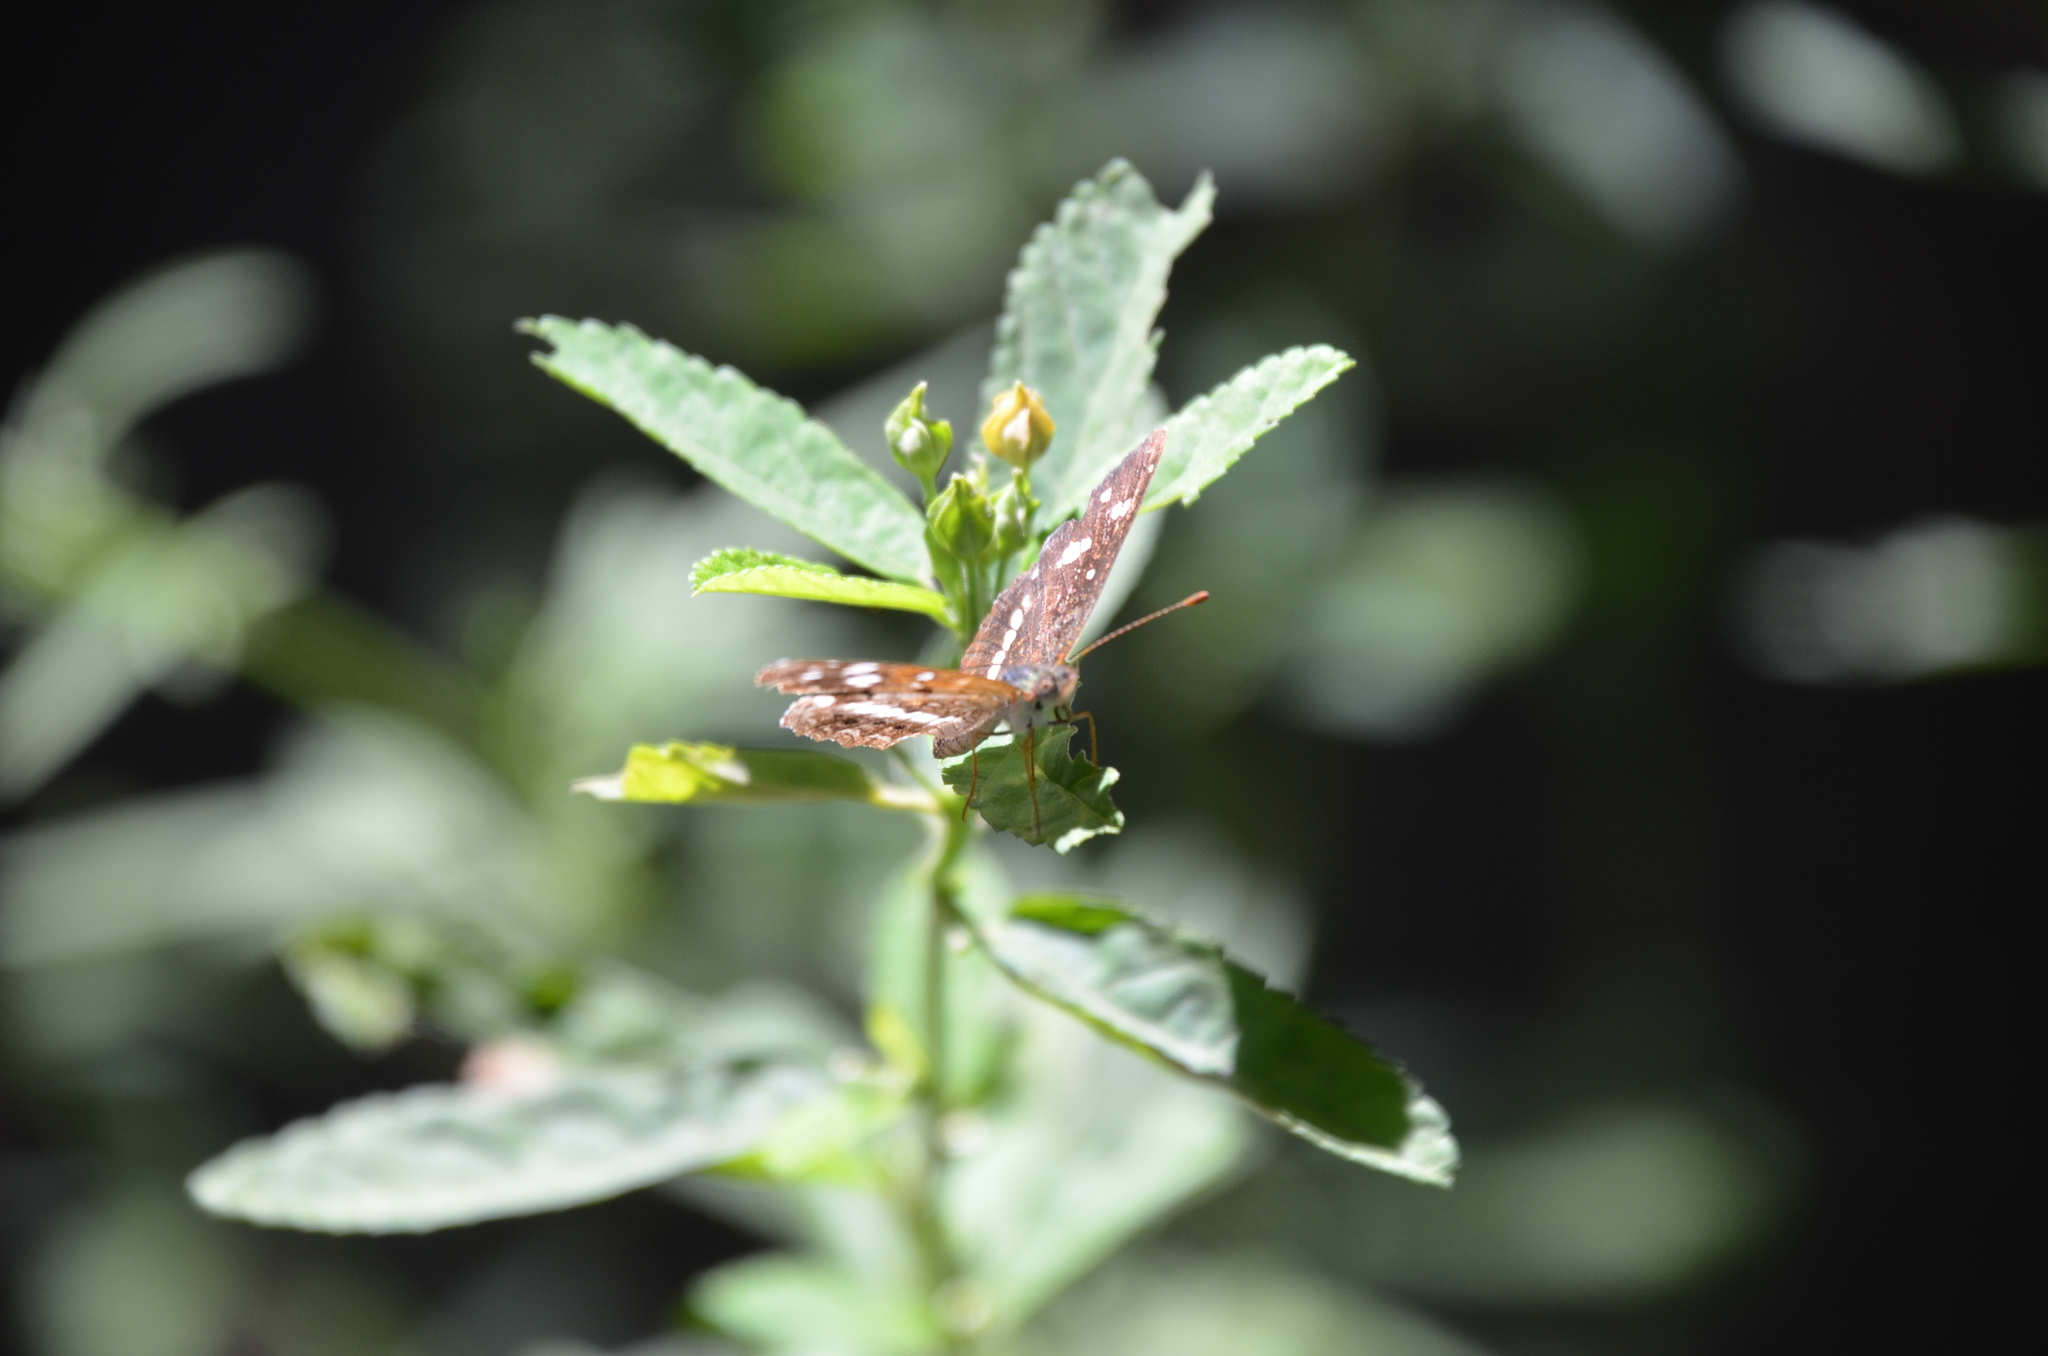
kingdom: Animalia
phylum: Arthropoda
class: Insecta
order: Lepidoptera
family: Nymphalidae
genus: Ortilia
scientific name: Ortilia ithra
